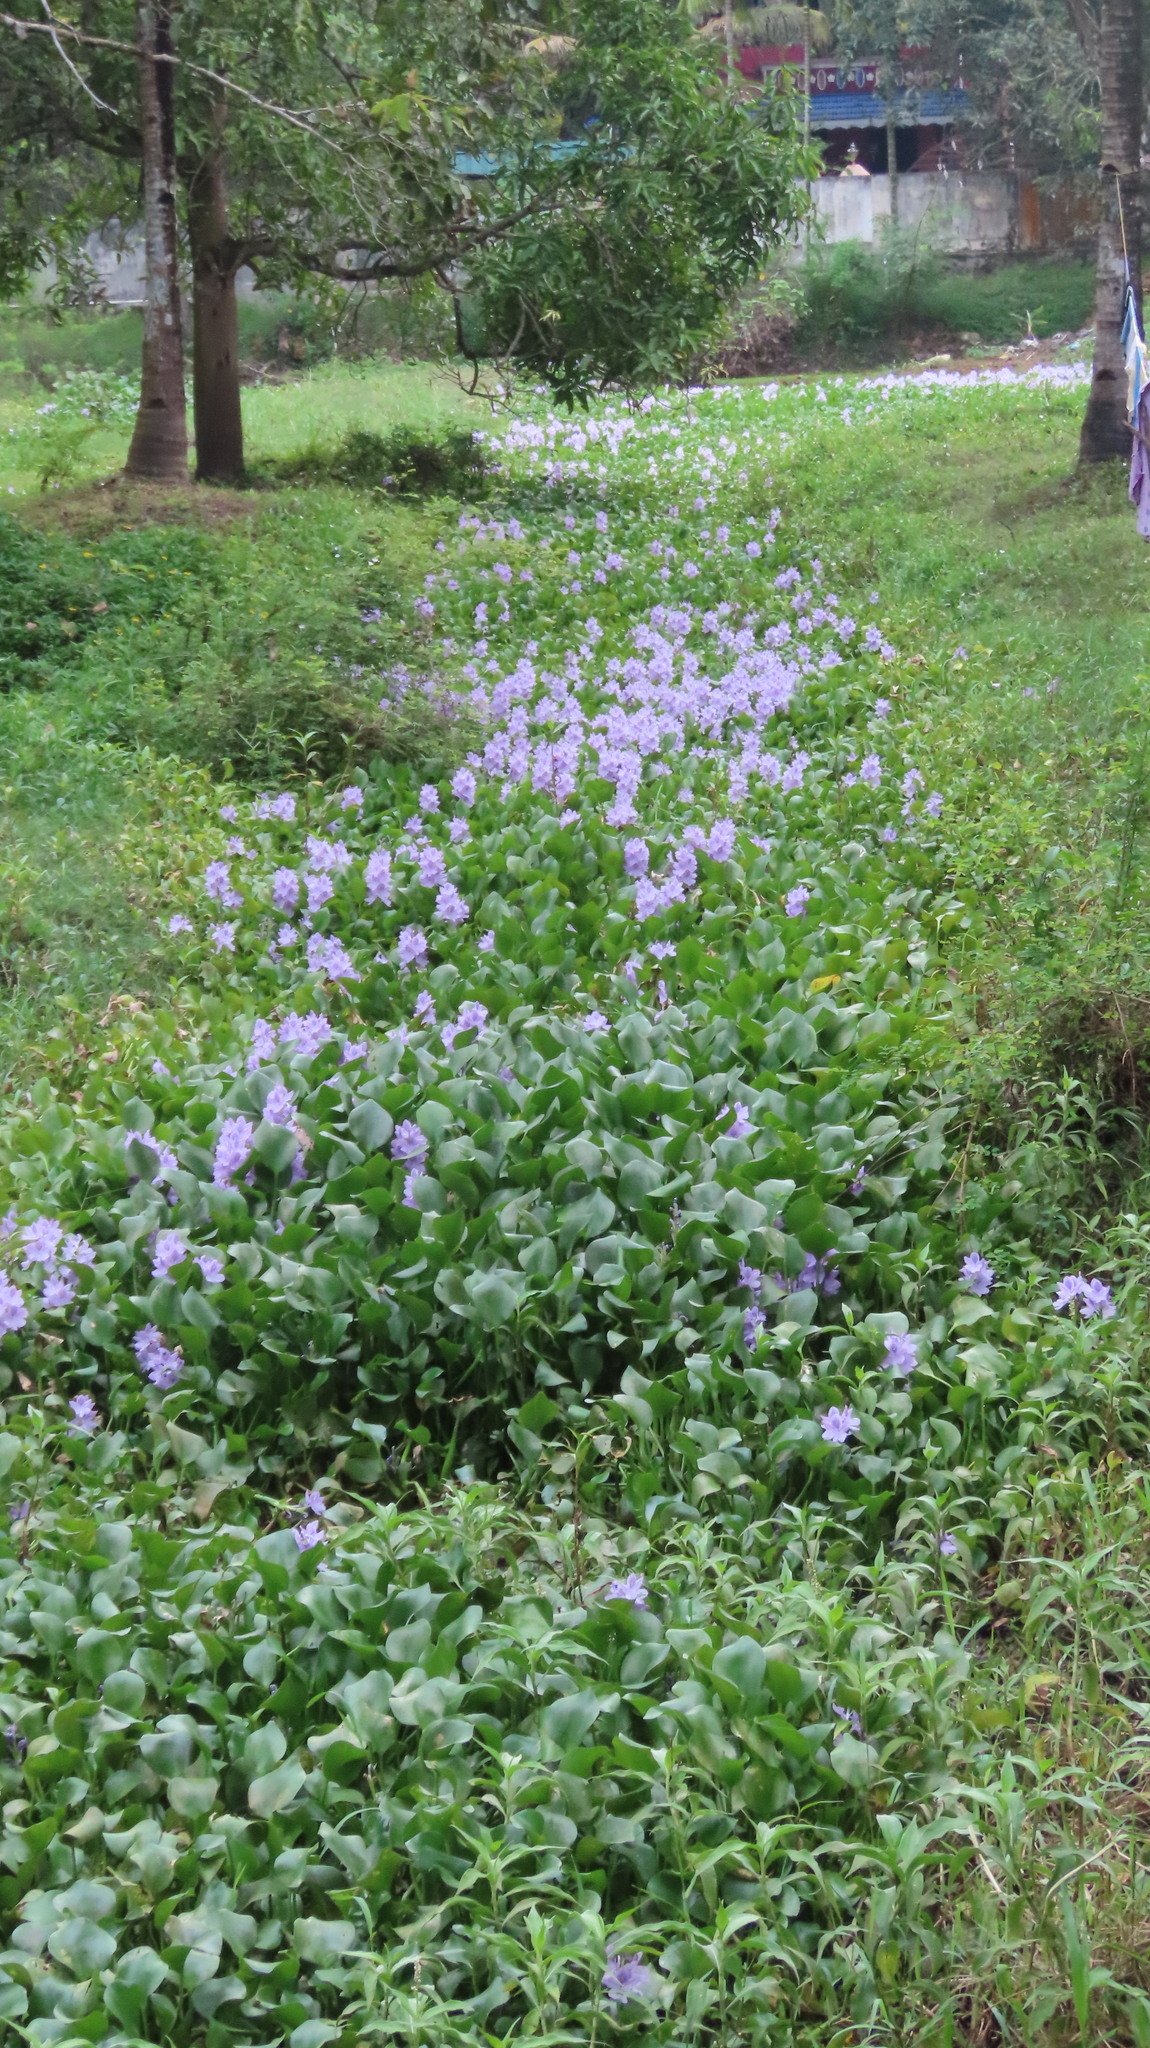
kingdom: Plantae
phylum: Tracheophyta
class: Liliopsida
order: Commelinales
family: Pontederiaceae
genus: Pontederia
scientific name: Pontederia crassipes
